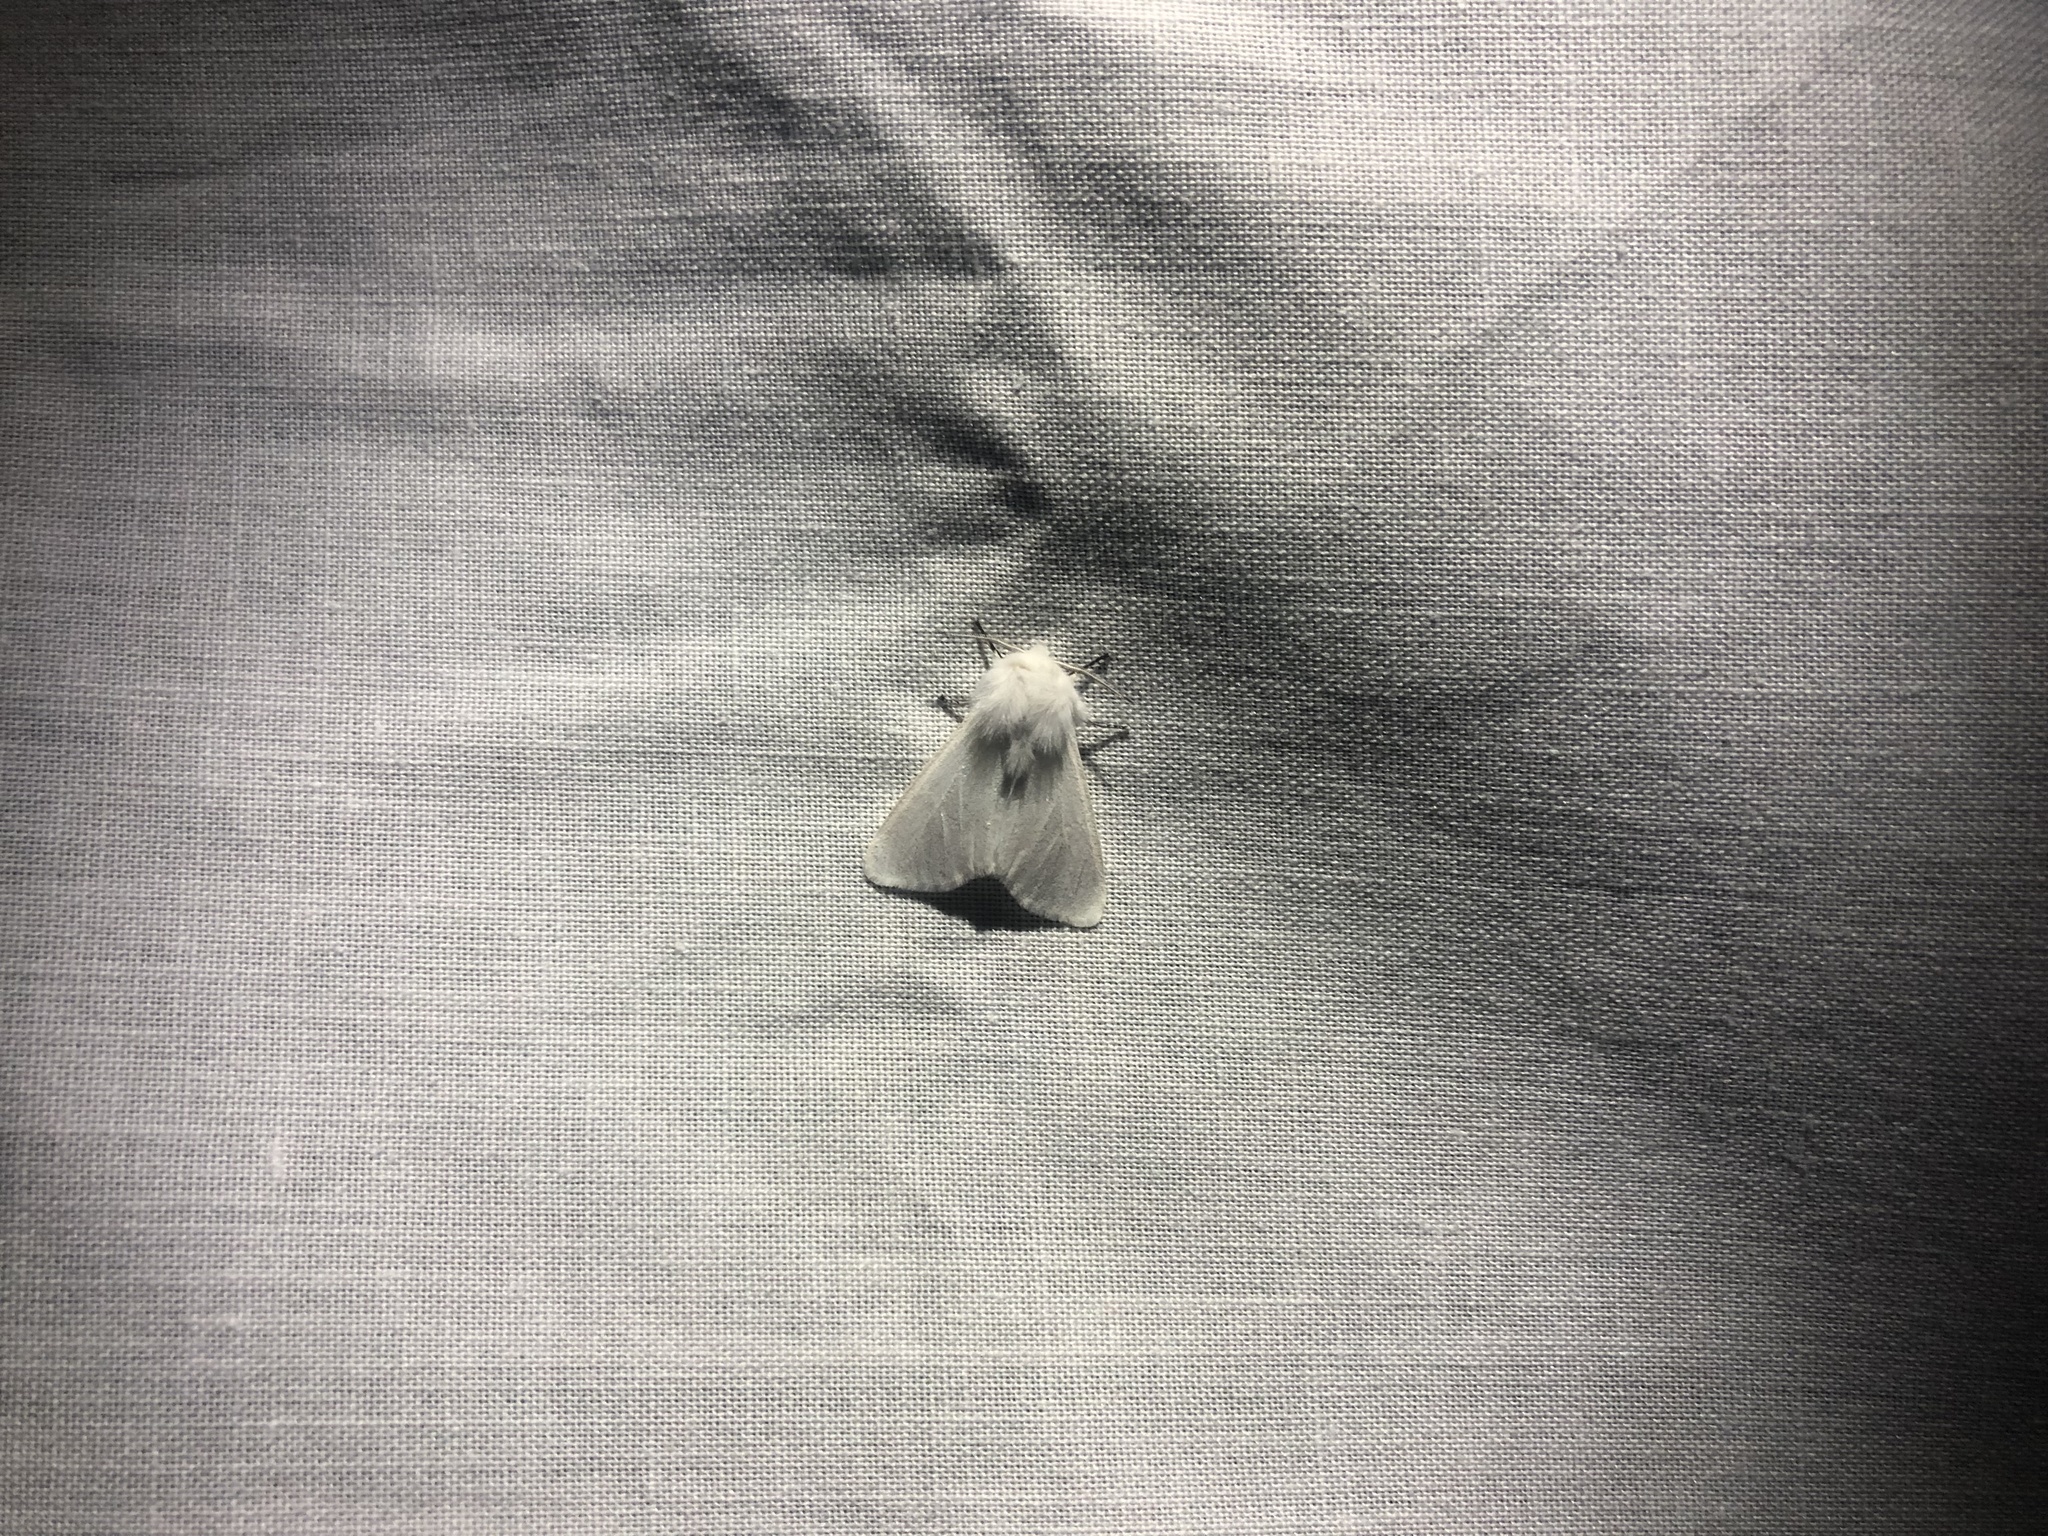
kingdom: Animalia
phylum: Arthropoda
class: Insecta
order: Lepidoptera
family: Erebidae
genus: Hyphantria
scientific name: Hyphantria cunea
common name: American white moth
